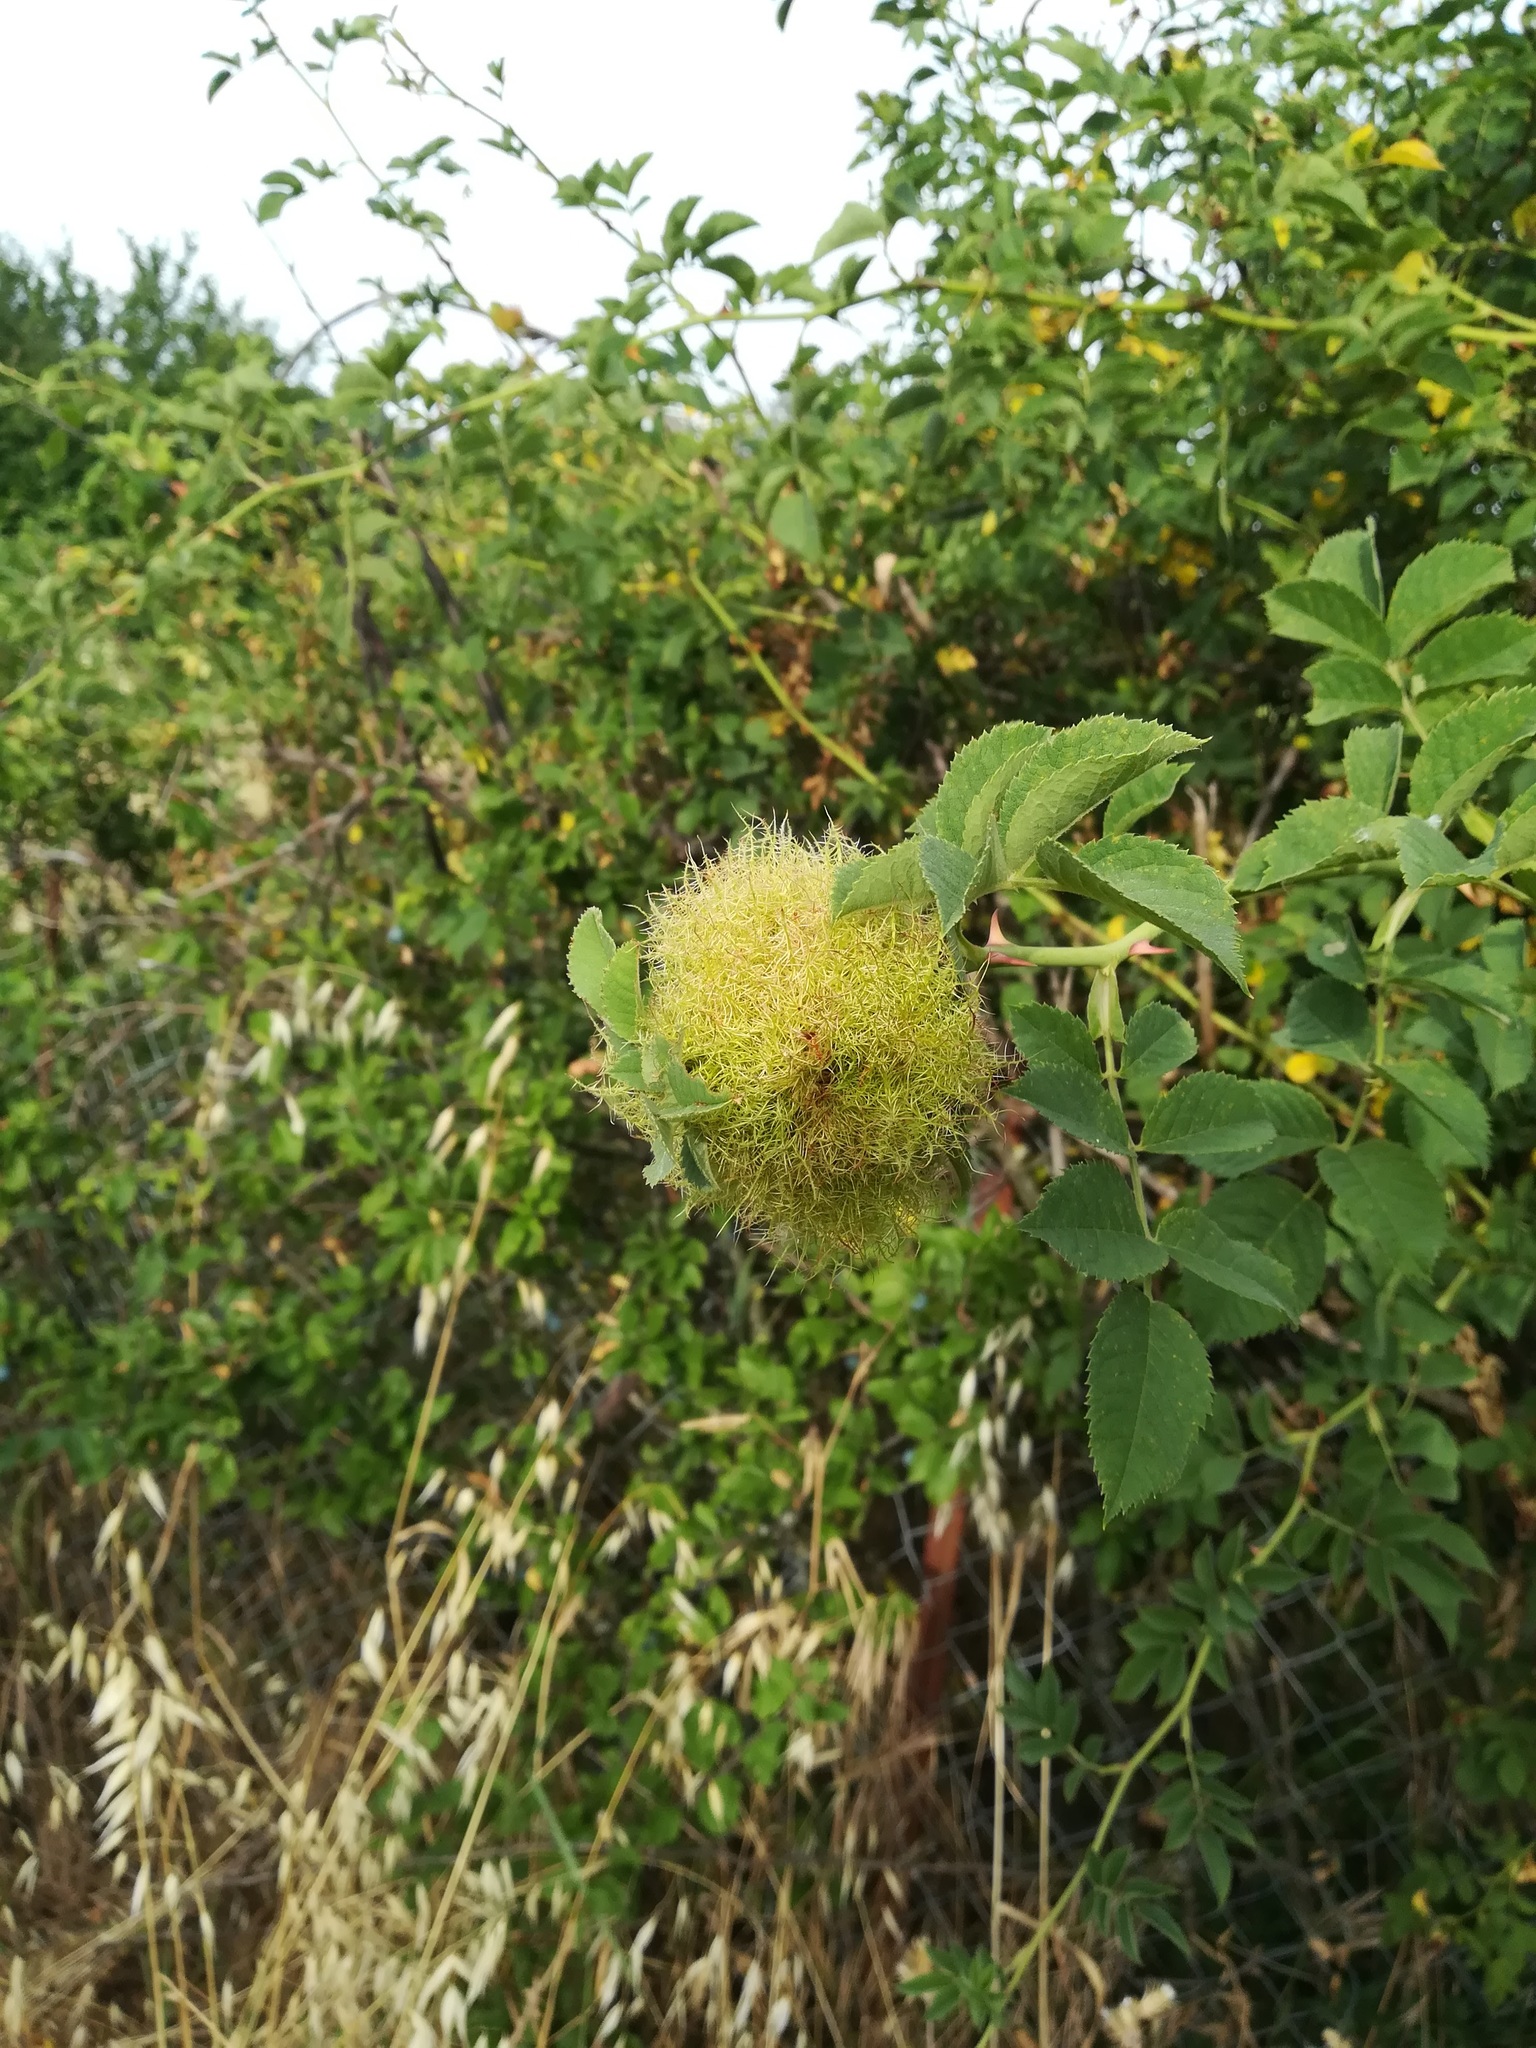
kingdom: Animalia
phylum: Arthropoda
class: Insecta
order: Hymenoptera
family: Cynipidae
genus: Diplolepis
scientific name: Diplolepis rosae
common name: Bedeguar gall
